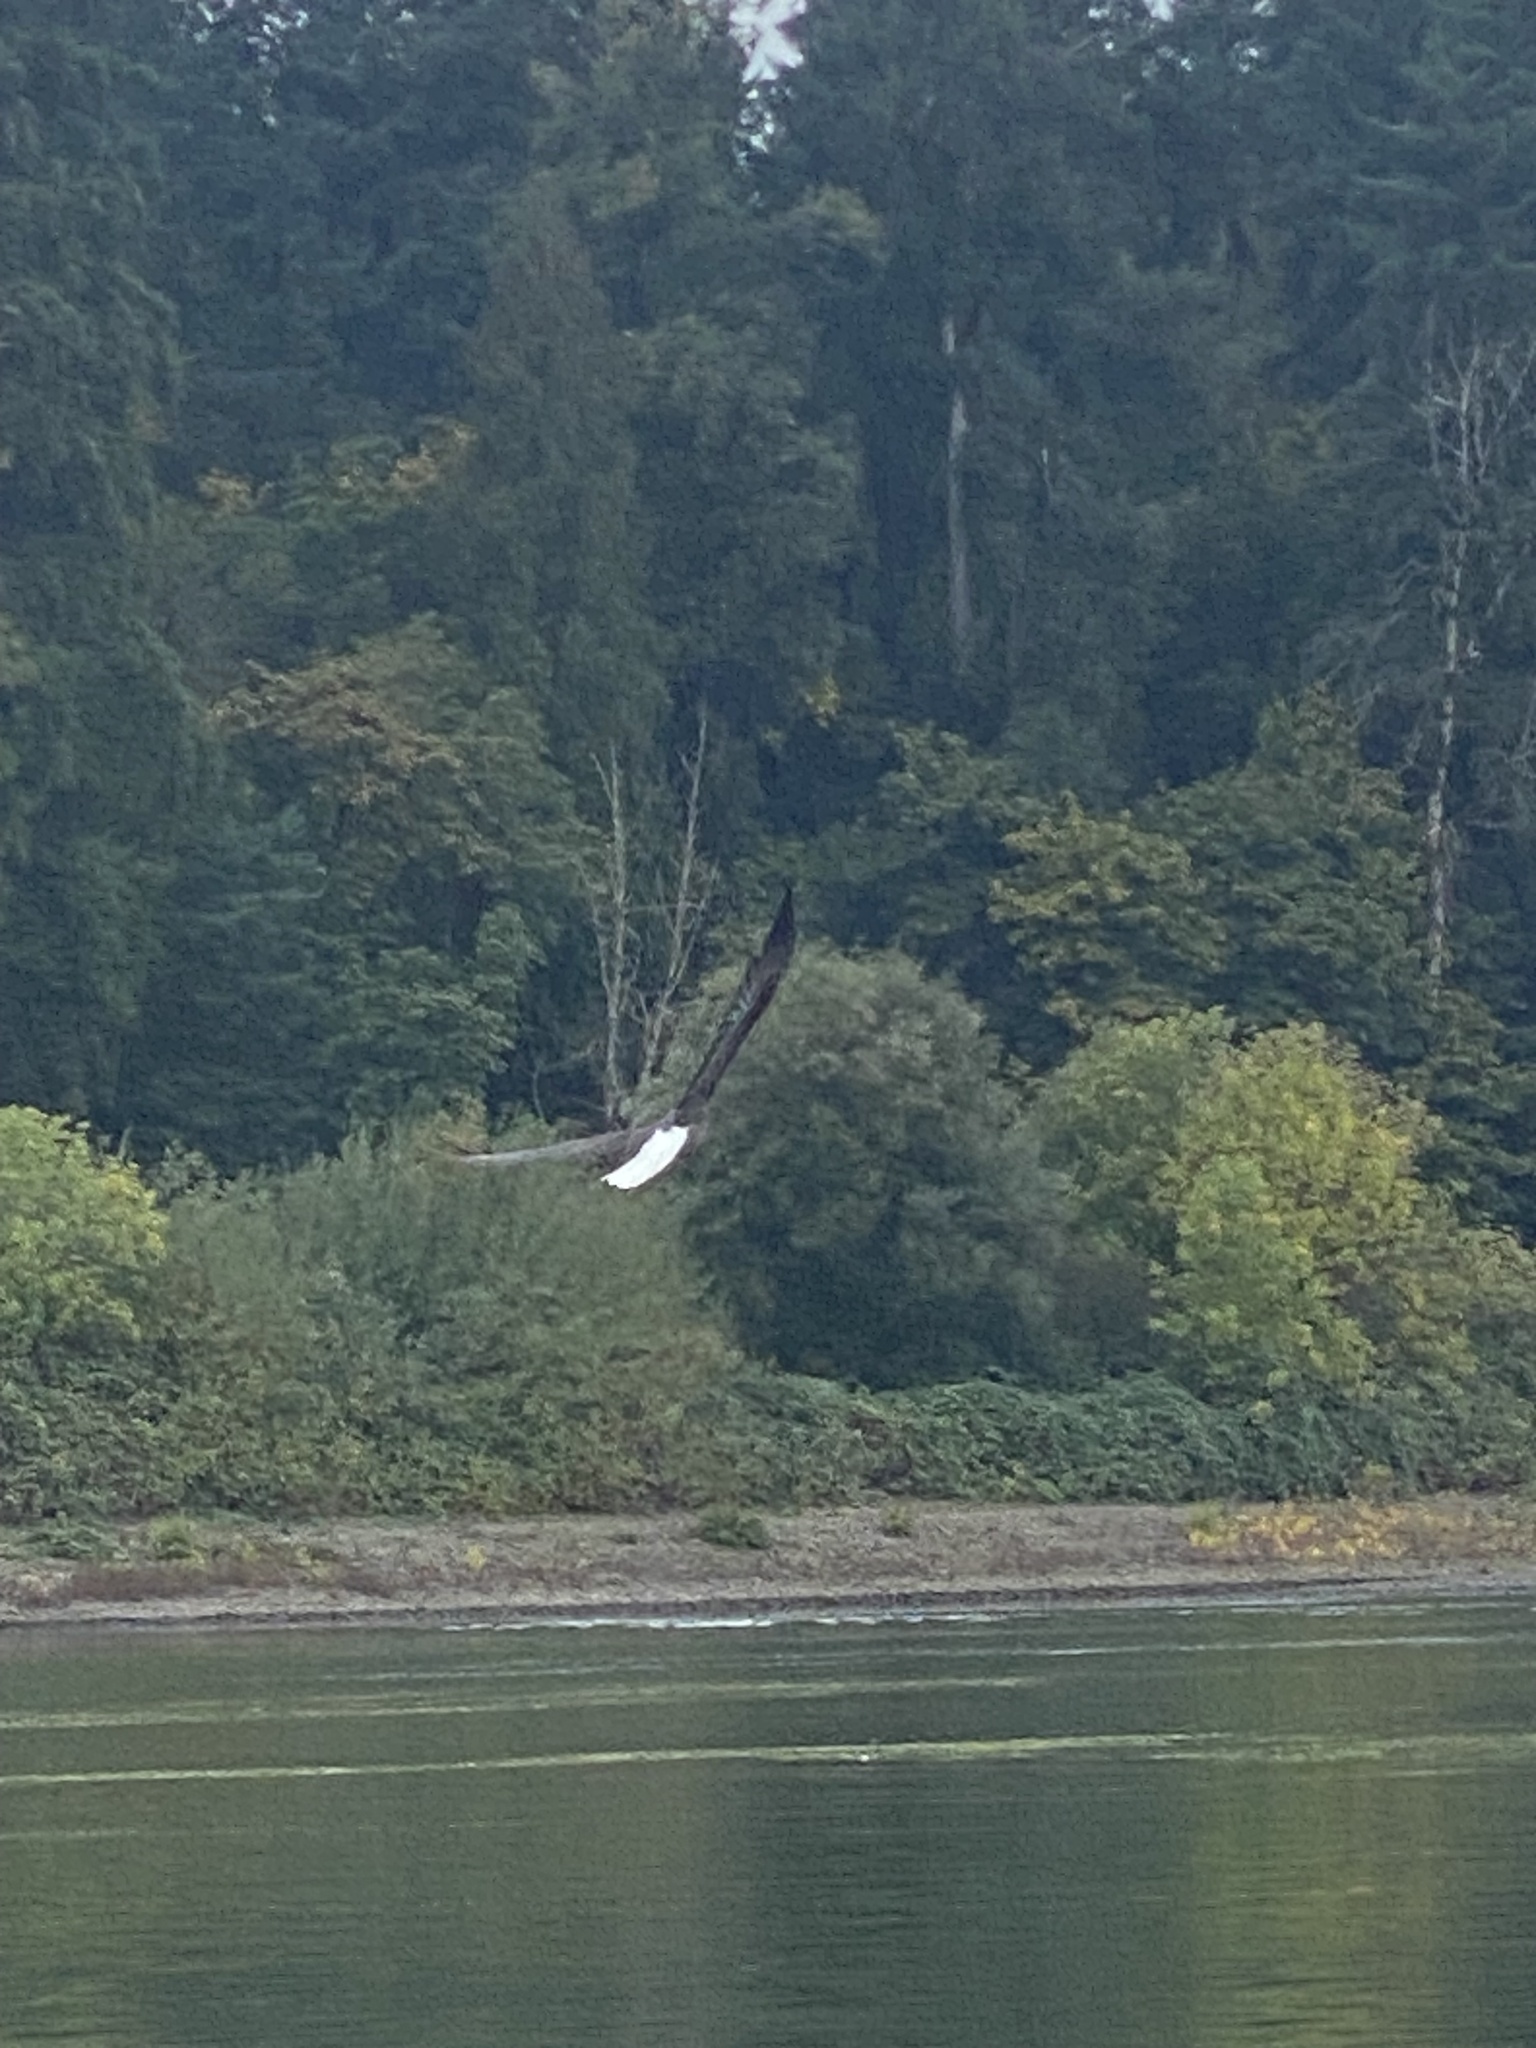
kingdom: Animalia
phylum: Chordata
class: Aves
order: Accipitriformes
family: Accipitridae
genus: Haliaeetus
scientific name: Haliaeetus leucocephalus
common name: Bald eagle
